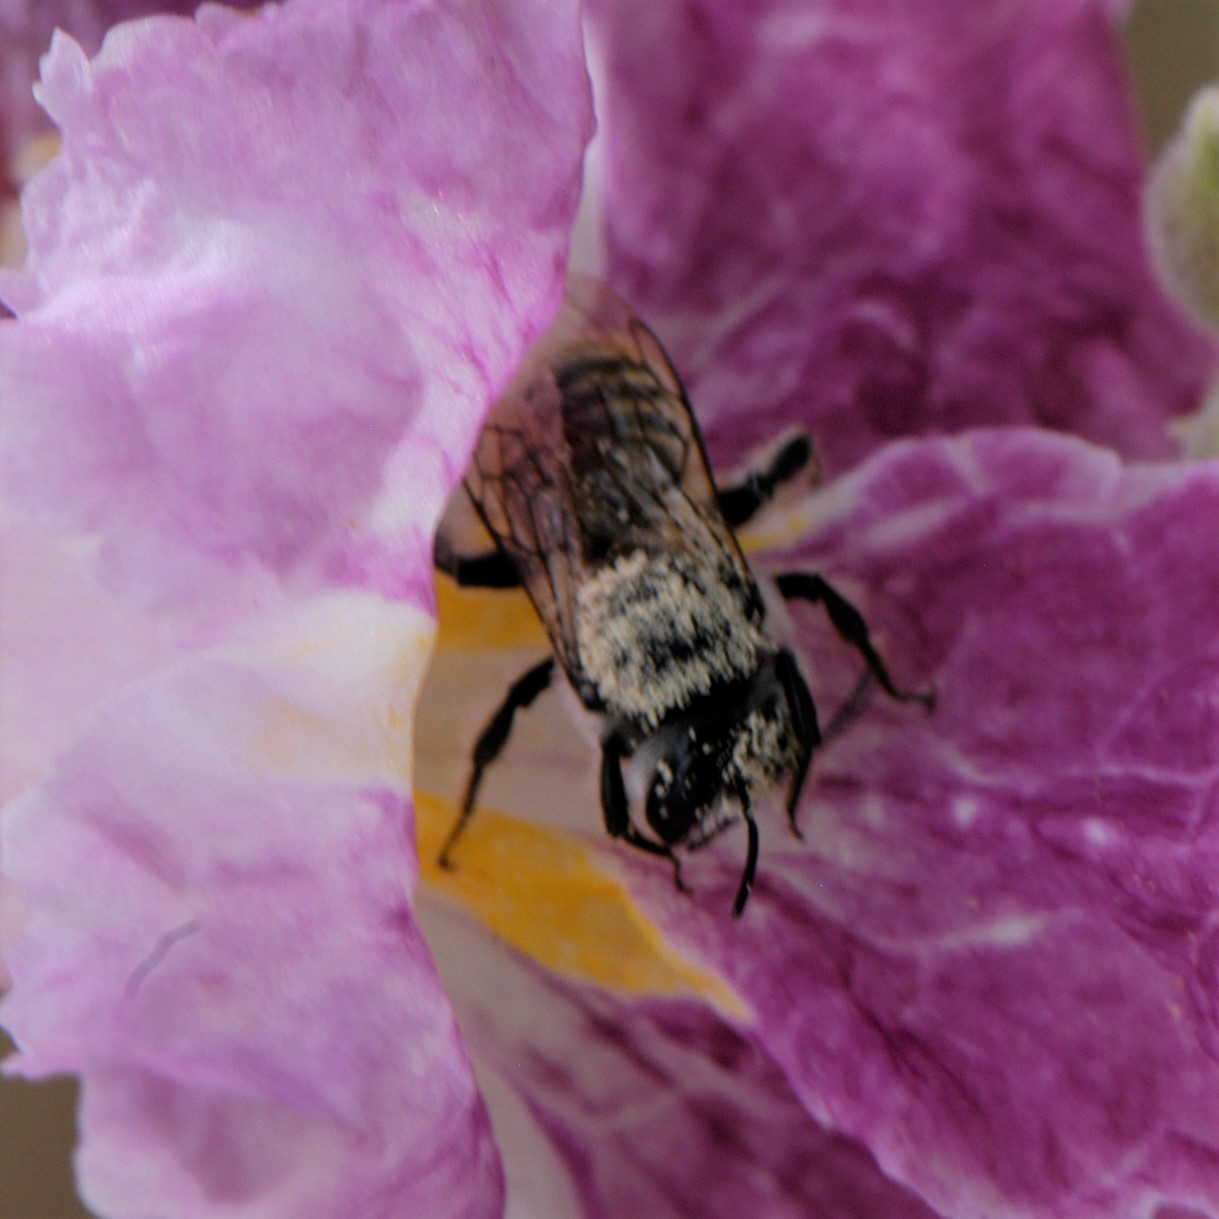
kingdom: Animalia
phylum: Arthropoda
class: Insecta
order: Hymenoptera
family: Megachilidae
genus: Lithurgopsis
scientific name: Lithurgopsis apicalis
